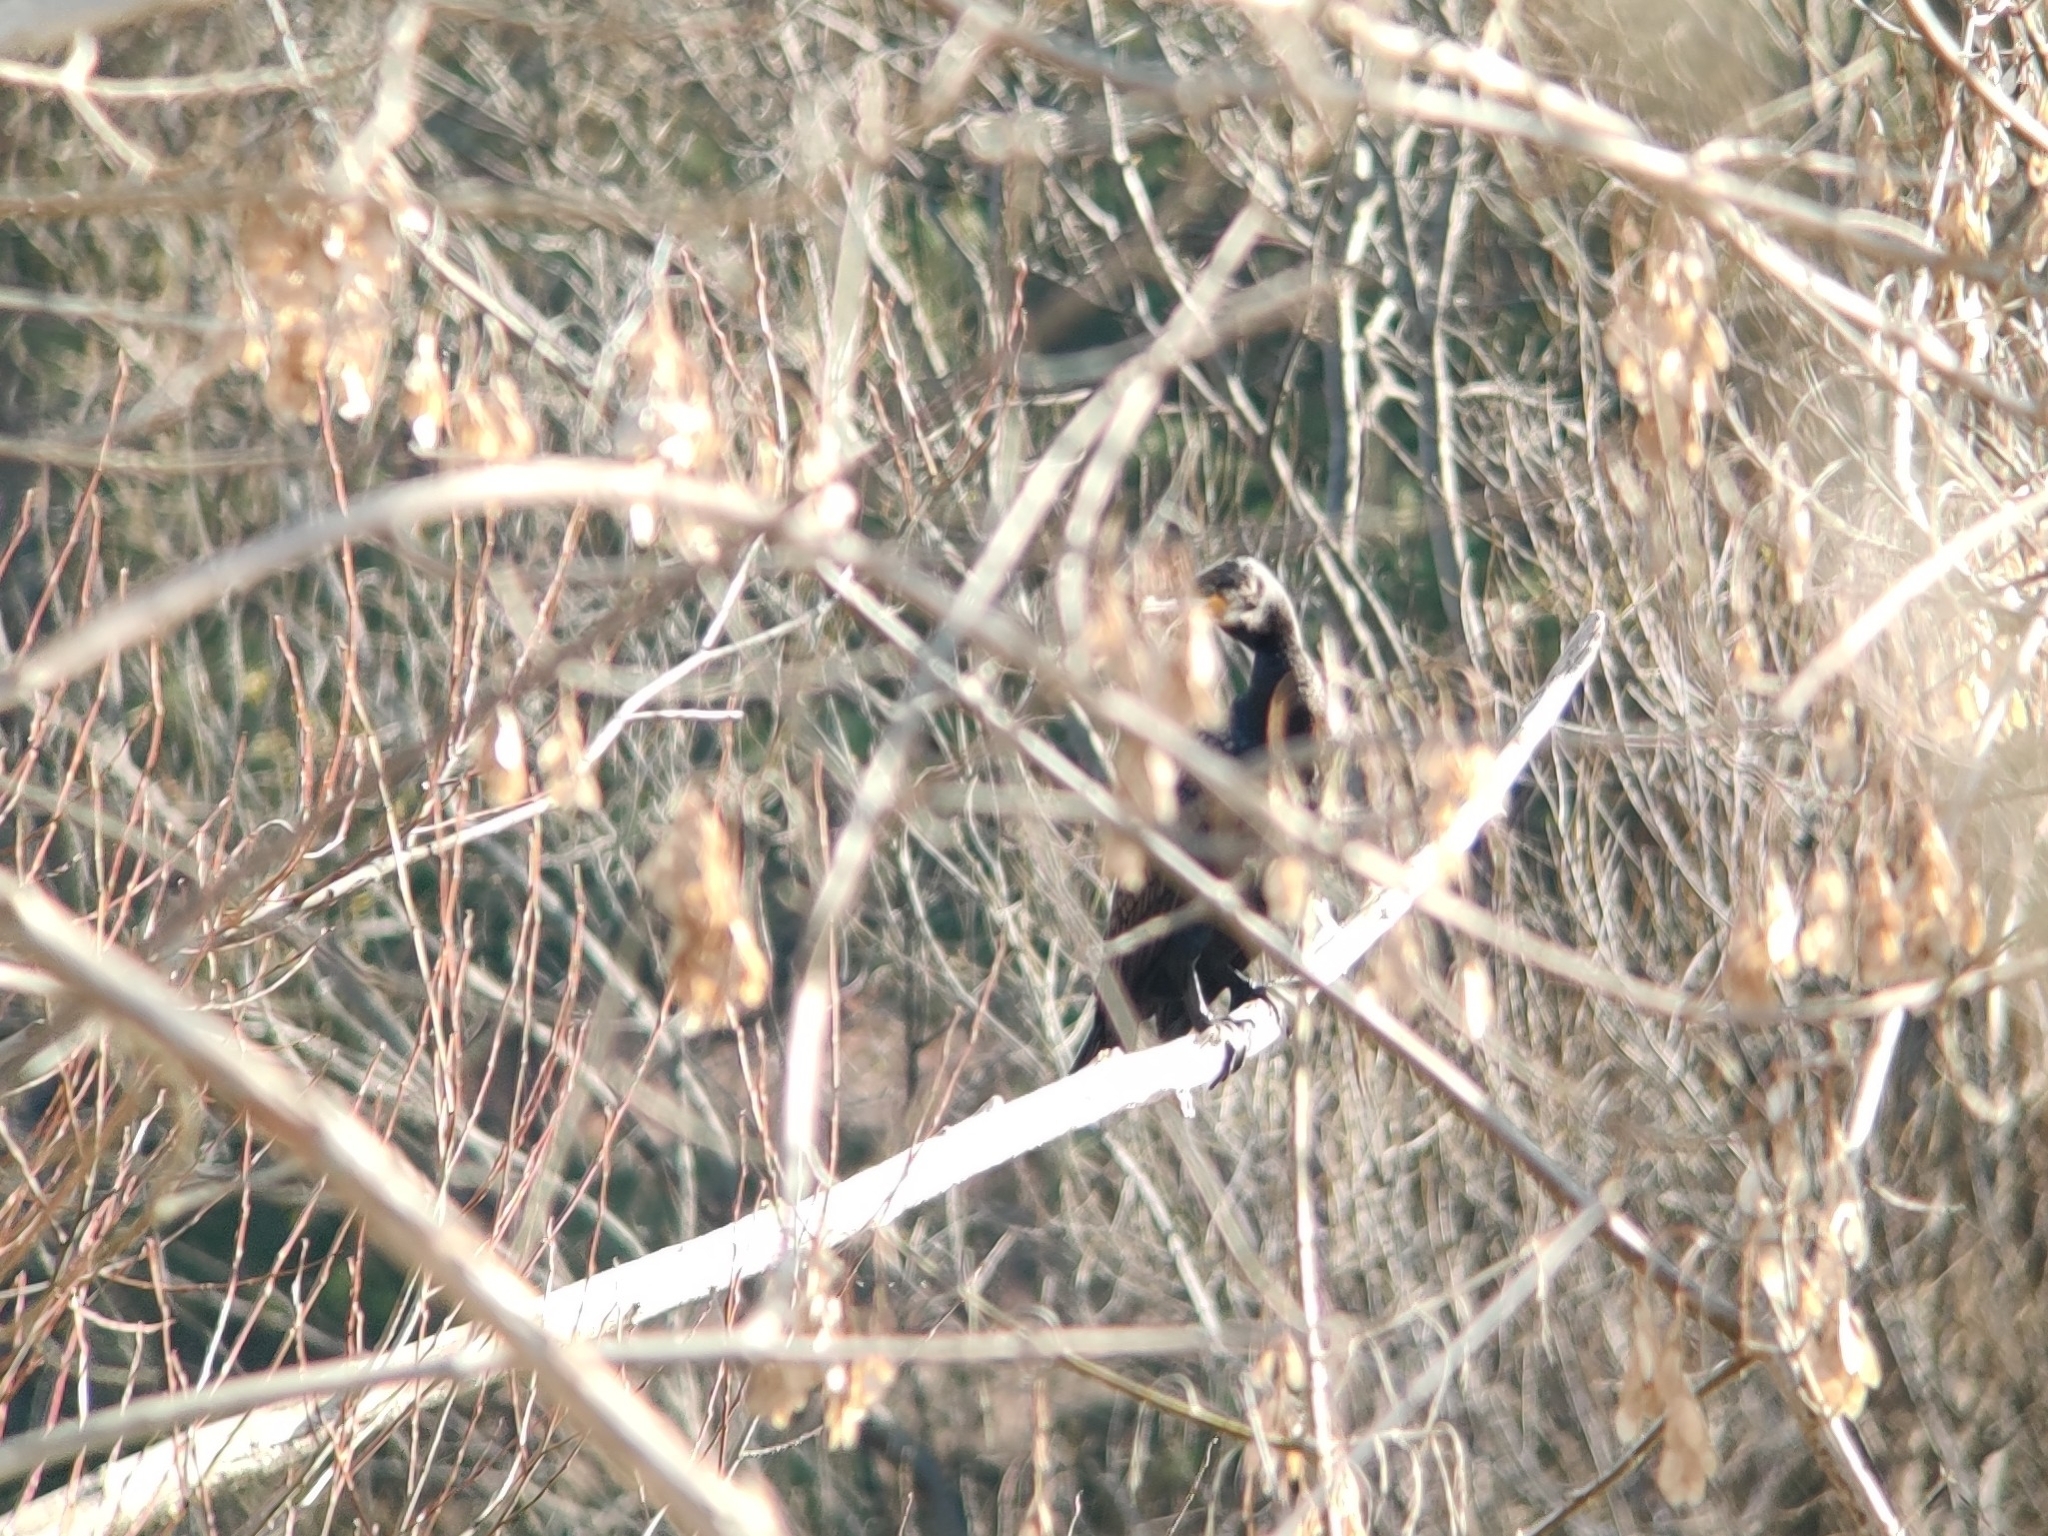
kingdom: Animalia
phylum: Chordata
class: Aves
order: Suliformes
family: Phalacrocoracidae
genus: Phalacrocorax
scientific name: Phalacrocorax carbo
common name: Great cormorant
